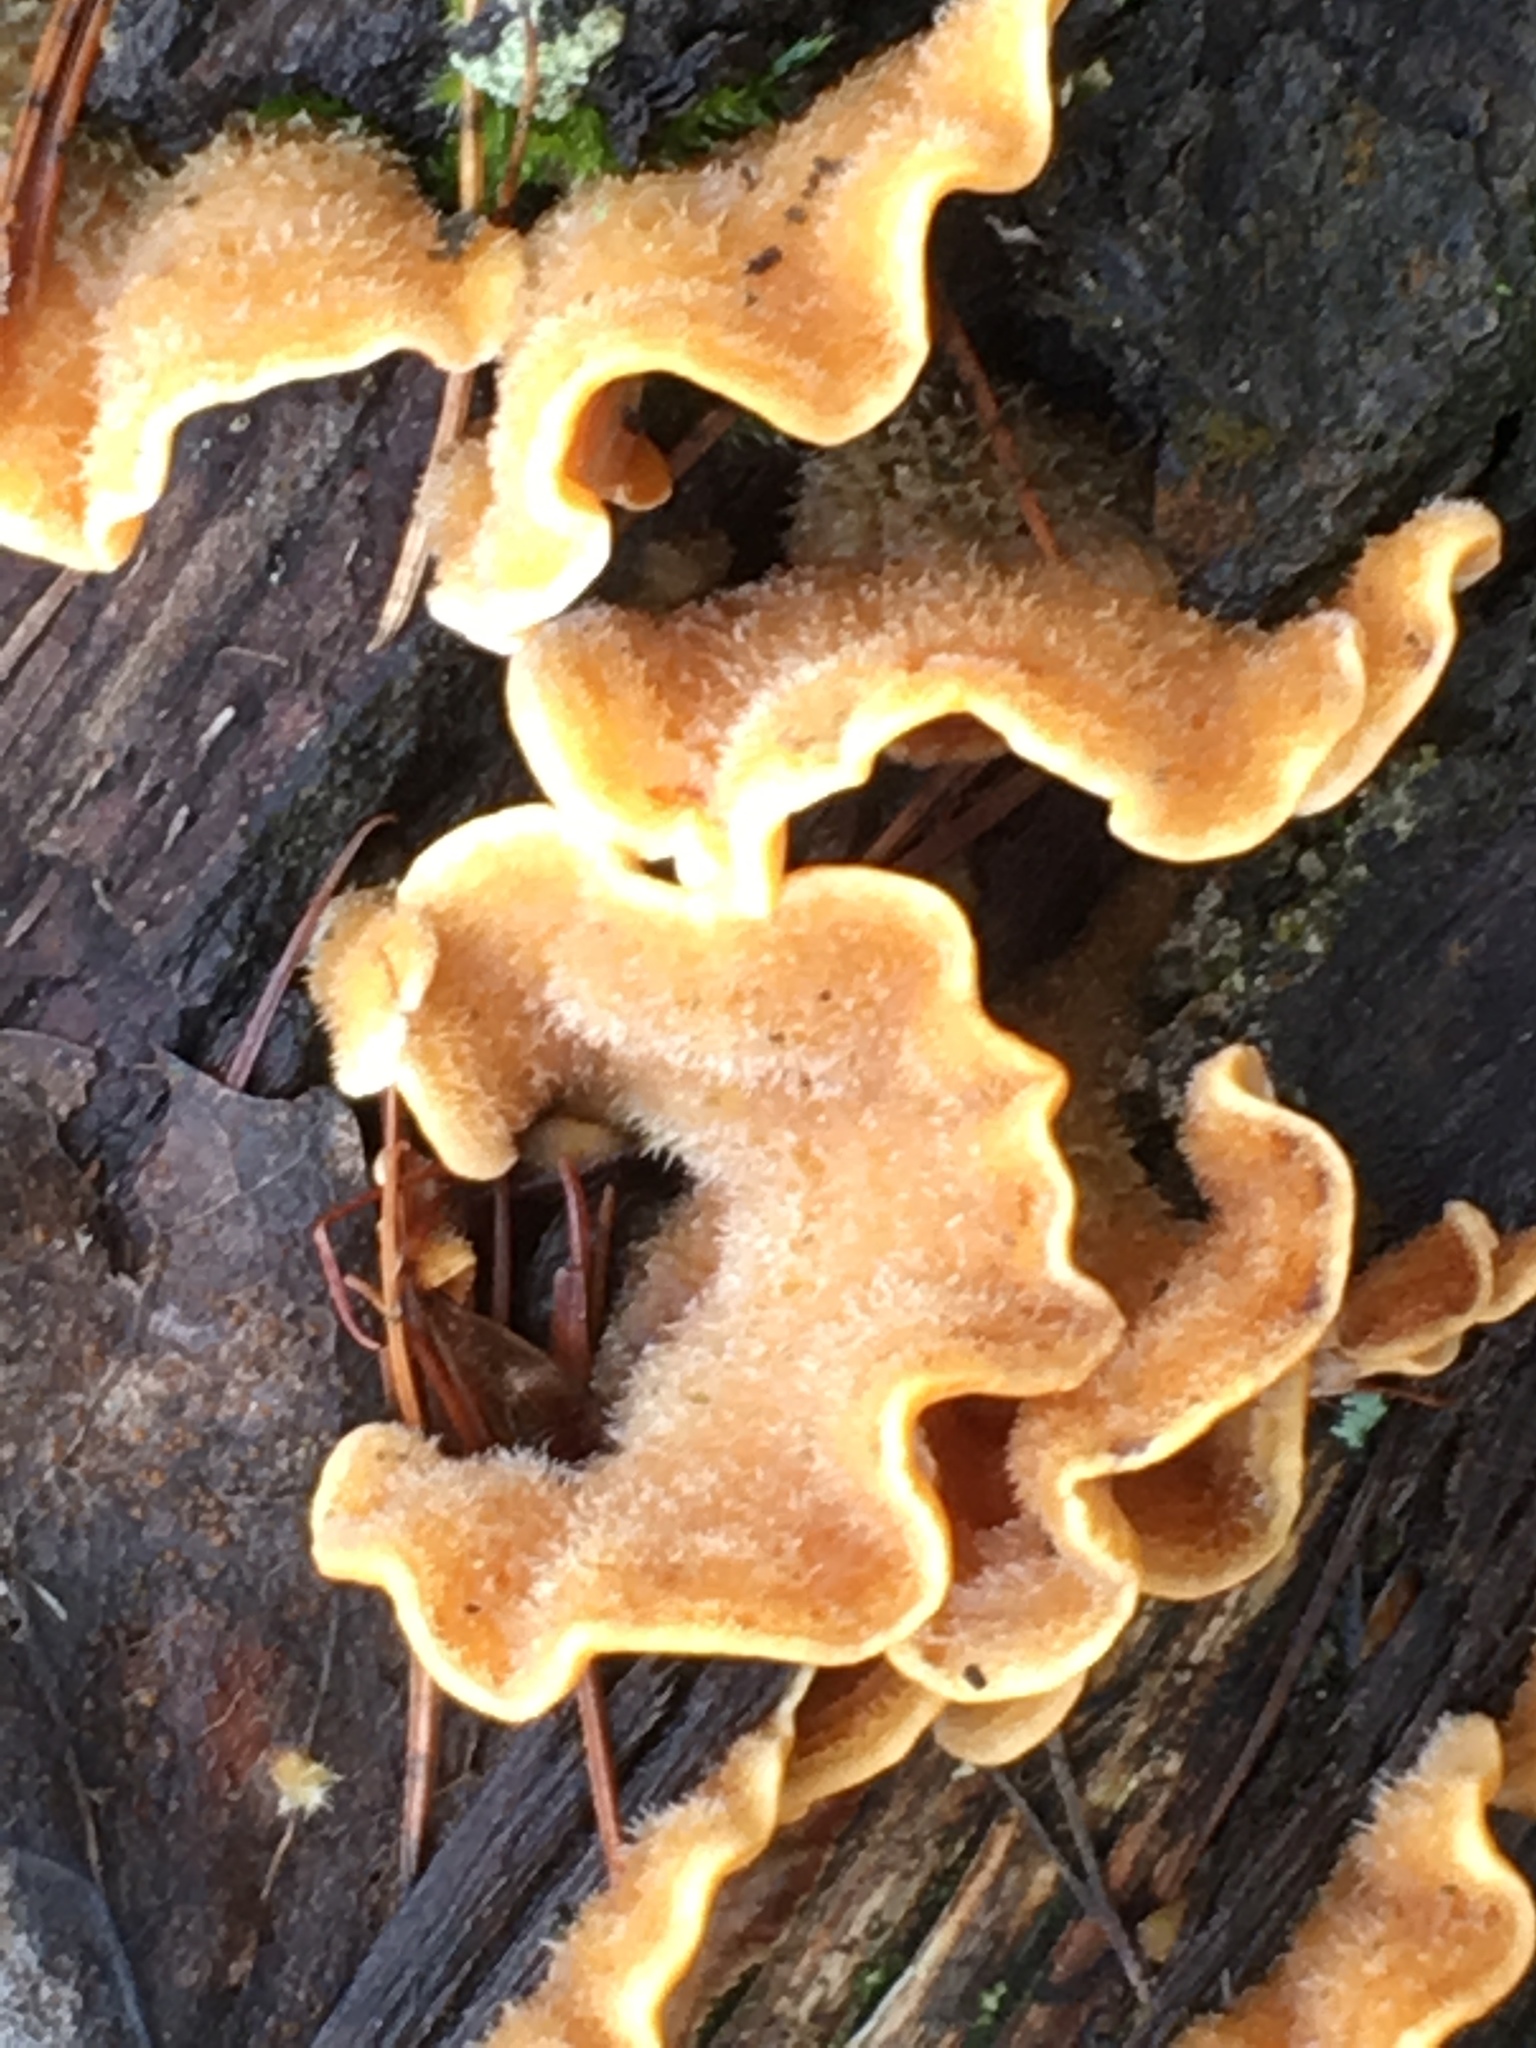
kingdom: Fungi
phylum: Basidiomycota
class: Agaricomycetes
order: Russulales
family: Stereaceae
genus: Stereum
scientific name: Stereum hirsutum
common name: Hairy curtain crust
